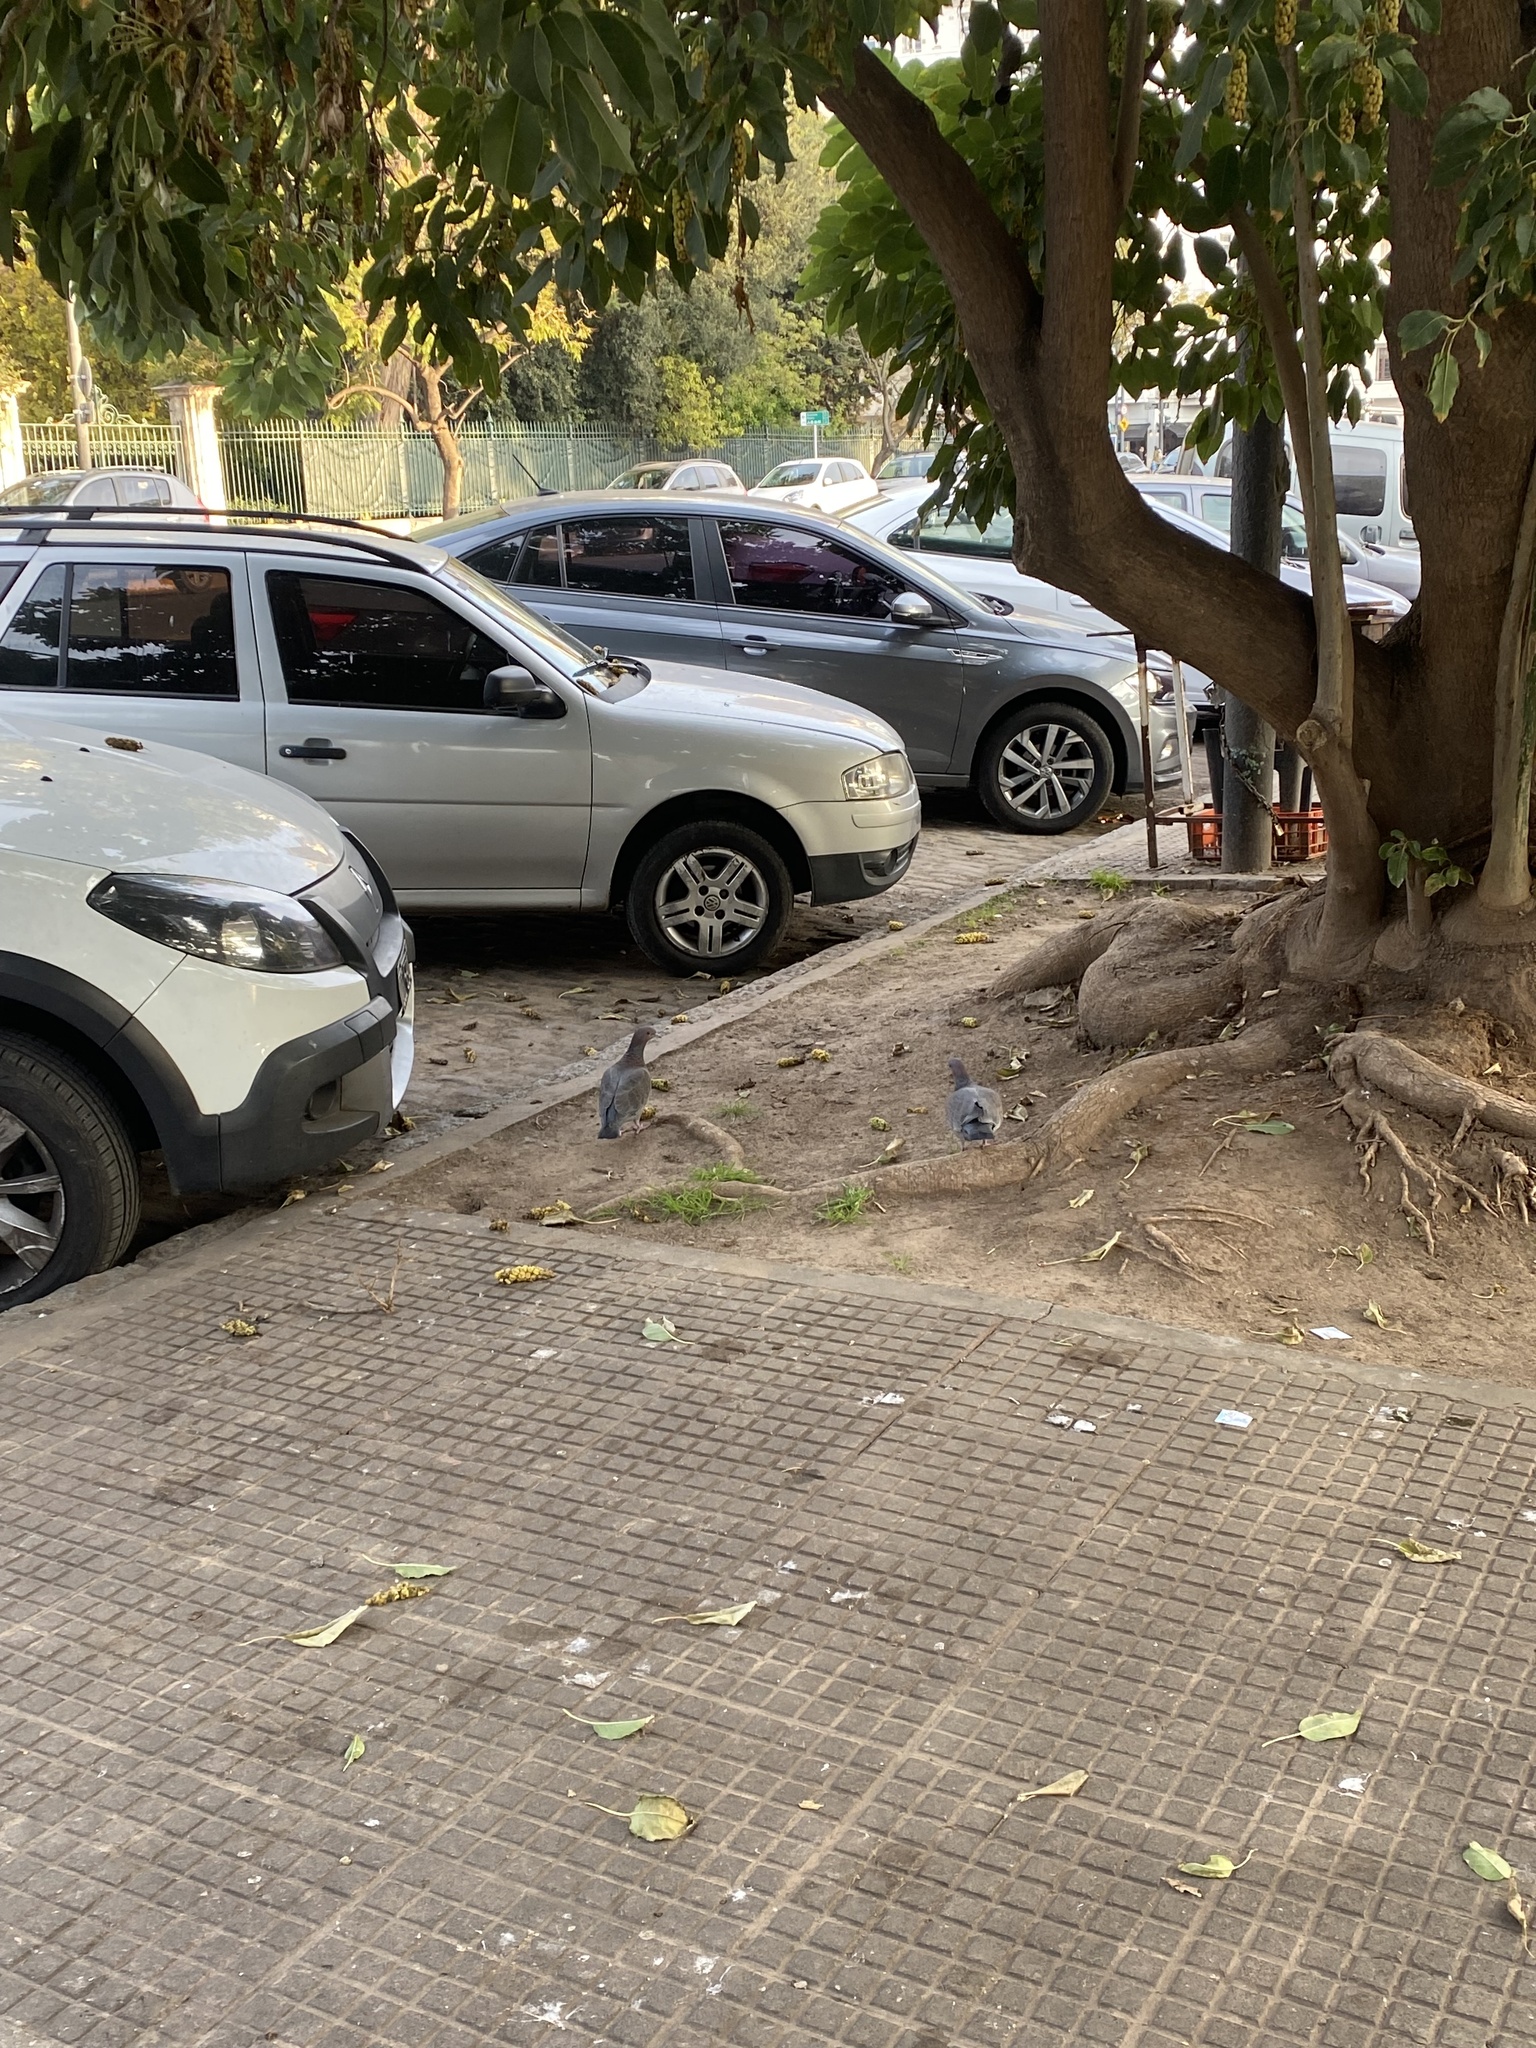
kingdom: Animalia
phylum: Chordata
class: Aves
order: Columbiformes
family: Columbidae
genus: Patagioenas
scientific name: Patagioenas picazuro
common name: Picazuro pigeon
